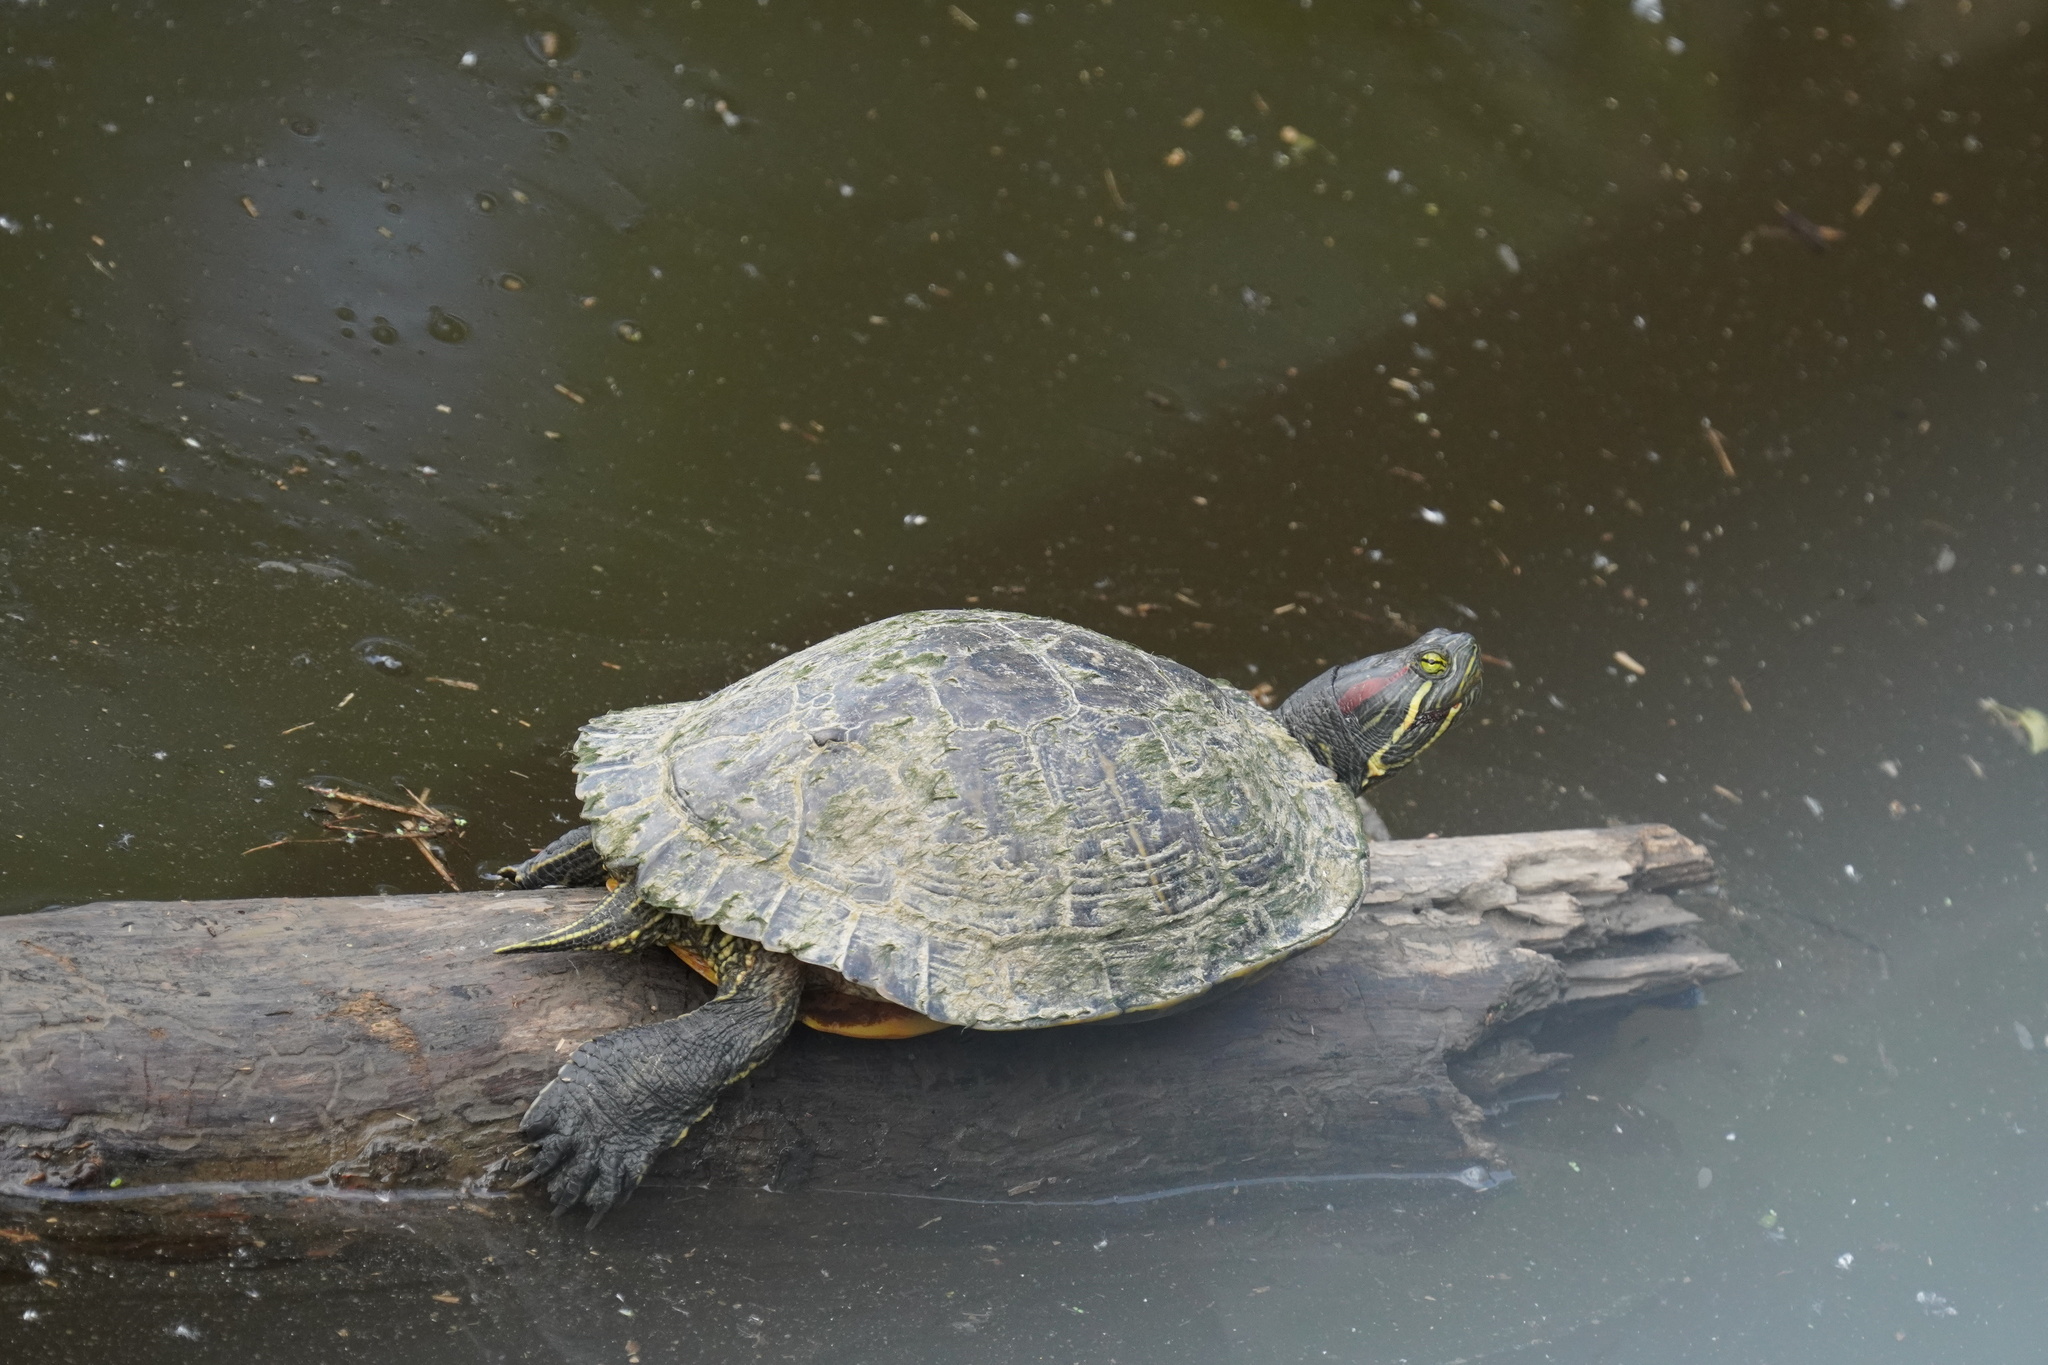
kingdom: Animalia
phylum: Chordata
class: Testudines
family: Emydidae
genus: Trachemys
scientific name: Trachemys scripta
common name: Slider
